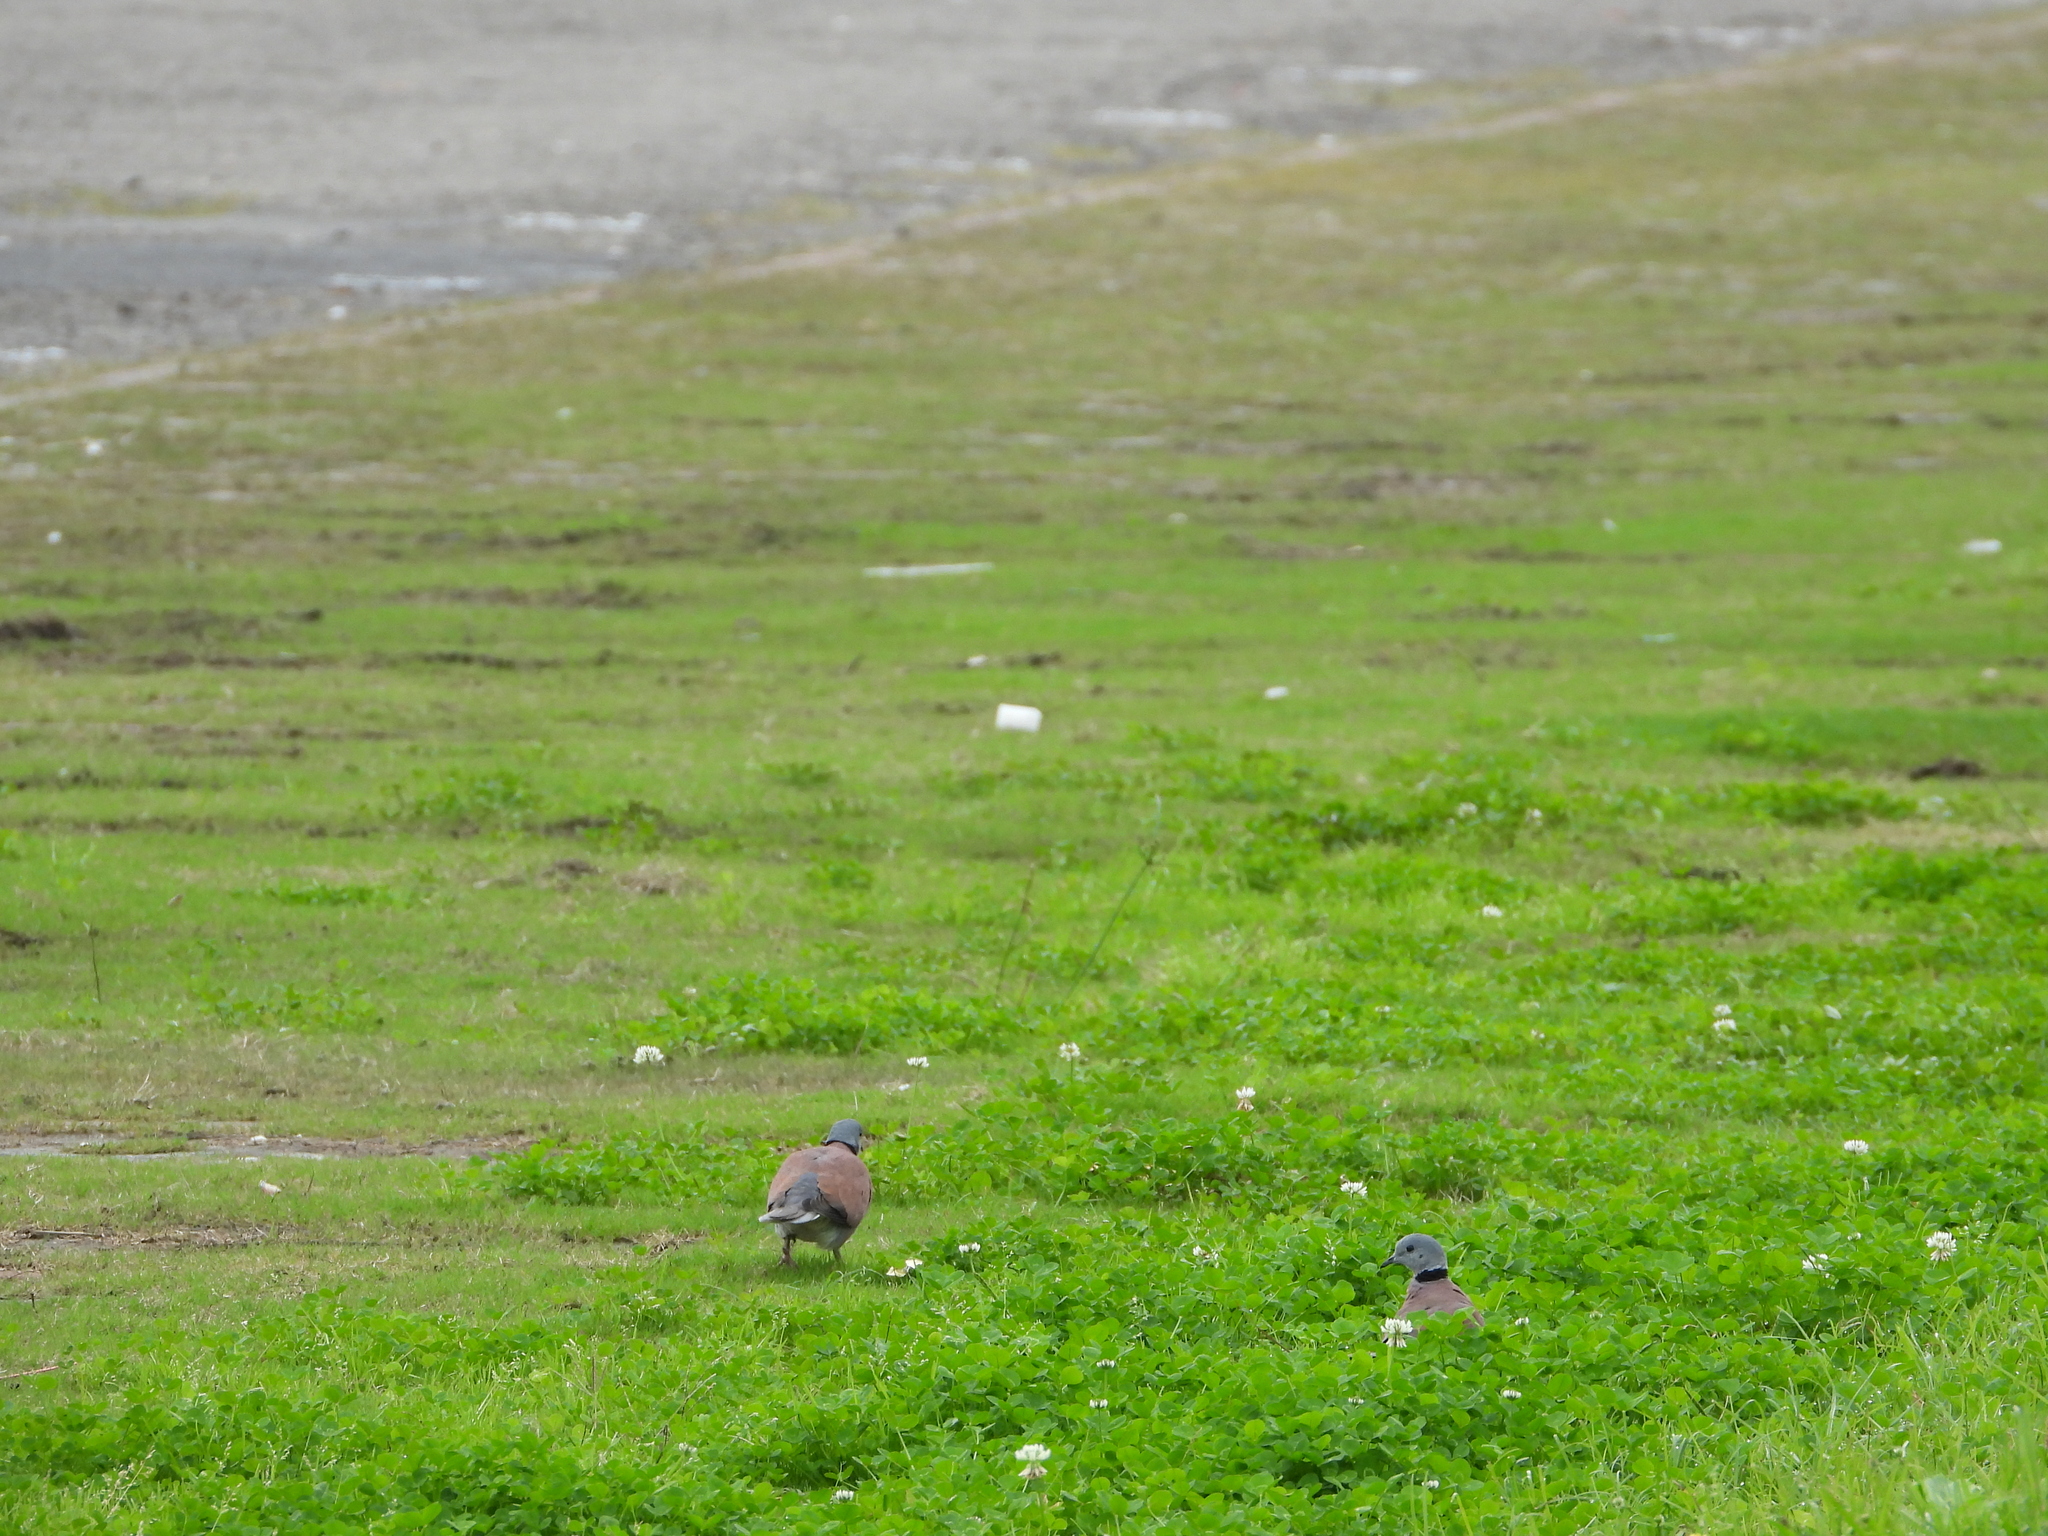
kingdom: Animalia
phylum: Chordata
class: Aves
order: Columbiformes
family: Columbidae
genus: Streptopelia
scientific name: Streptopelia tranquebarica
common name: Red turtle dove
